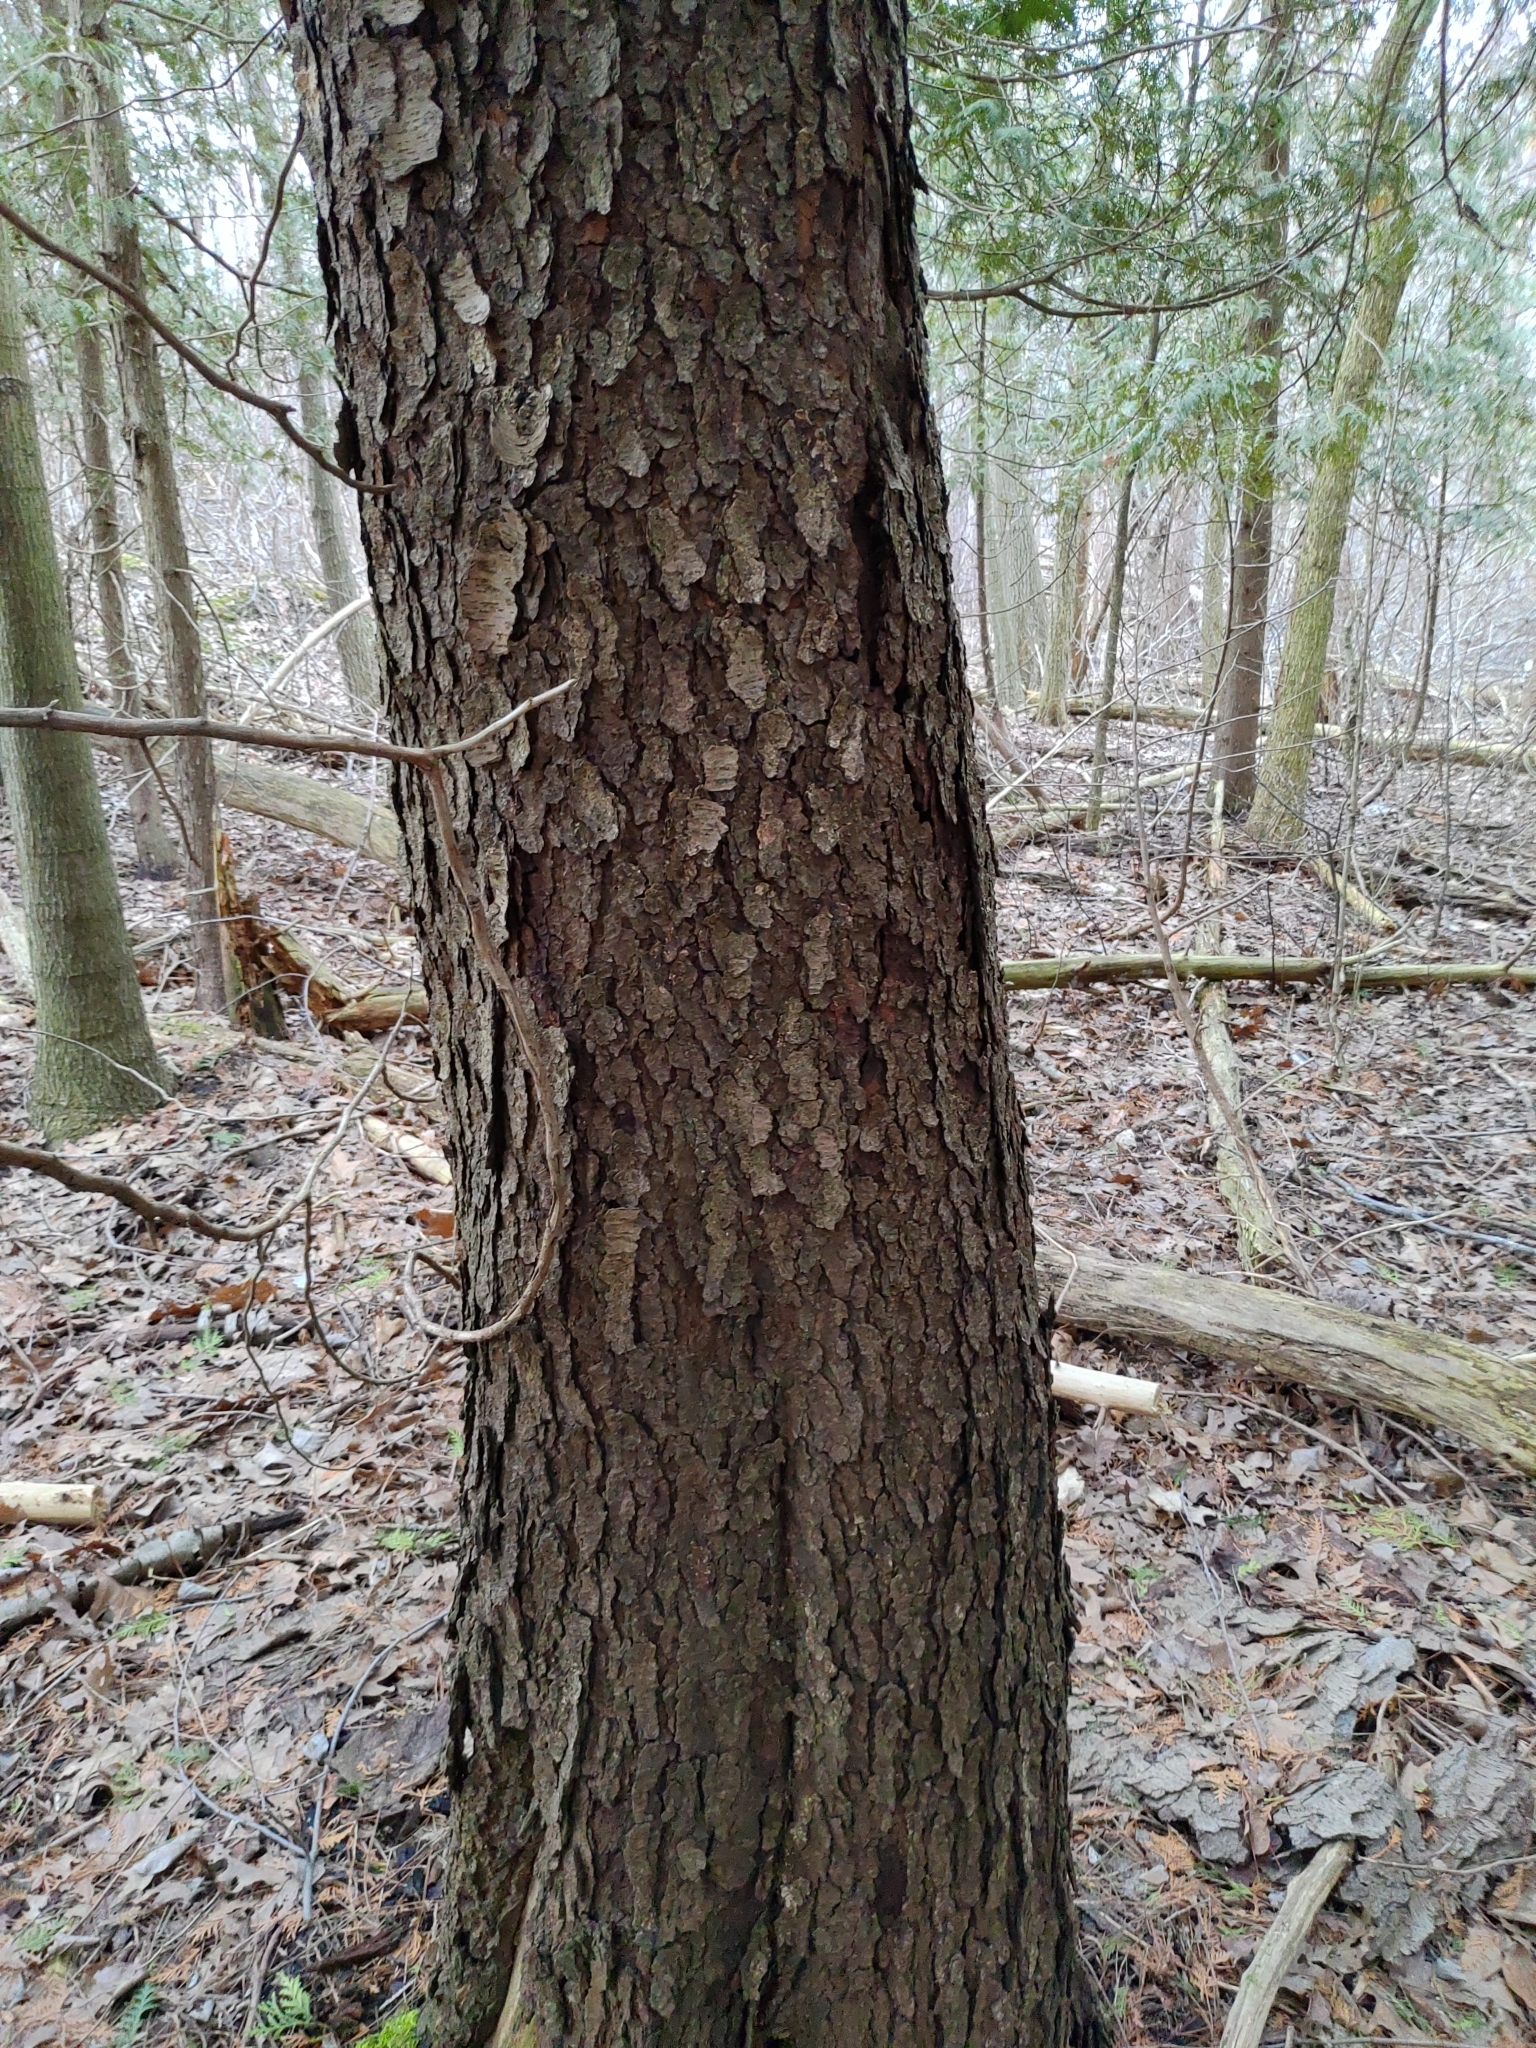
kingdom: Plantae
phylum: Tracheophyta
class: Magnoliopsida
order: Rosales
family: Rosaceae
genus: Prunus
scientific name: Prunus serotina
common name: Black cherry
